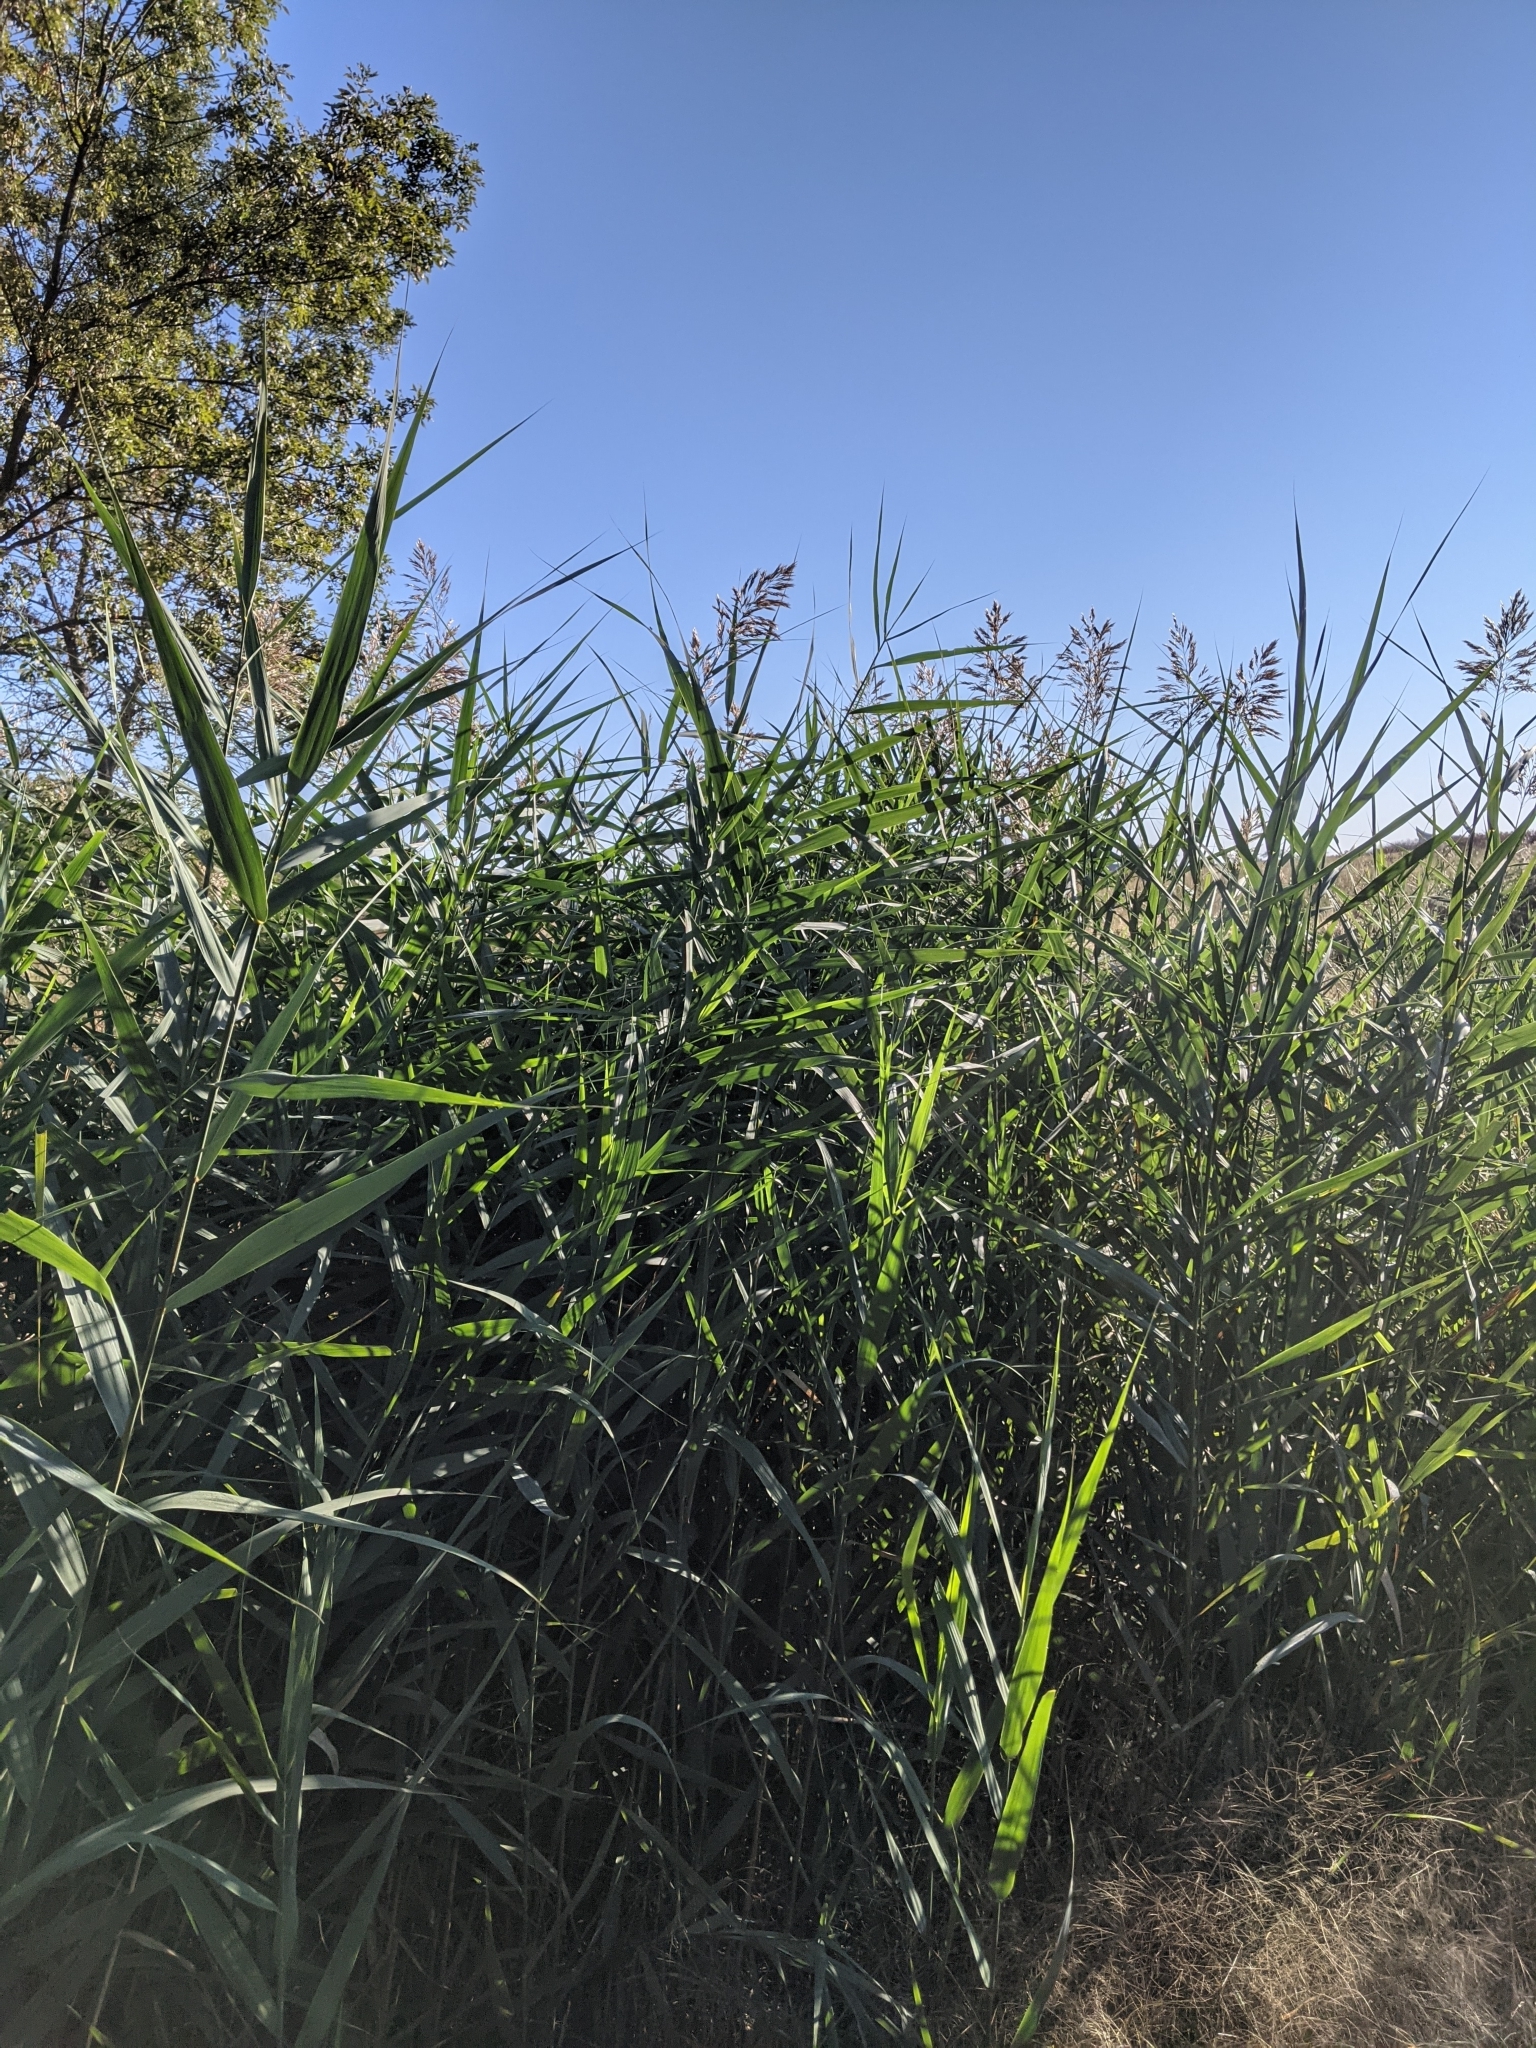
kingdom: Plantae
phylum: Tracheophyta
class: Liliopsida
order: Poales
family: Poaceae
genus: Phragmites
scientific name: Phragmites australis
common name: Common reed
